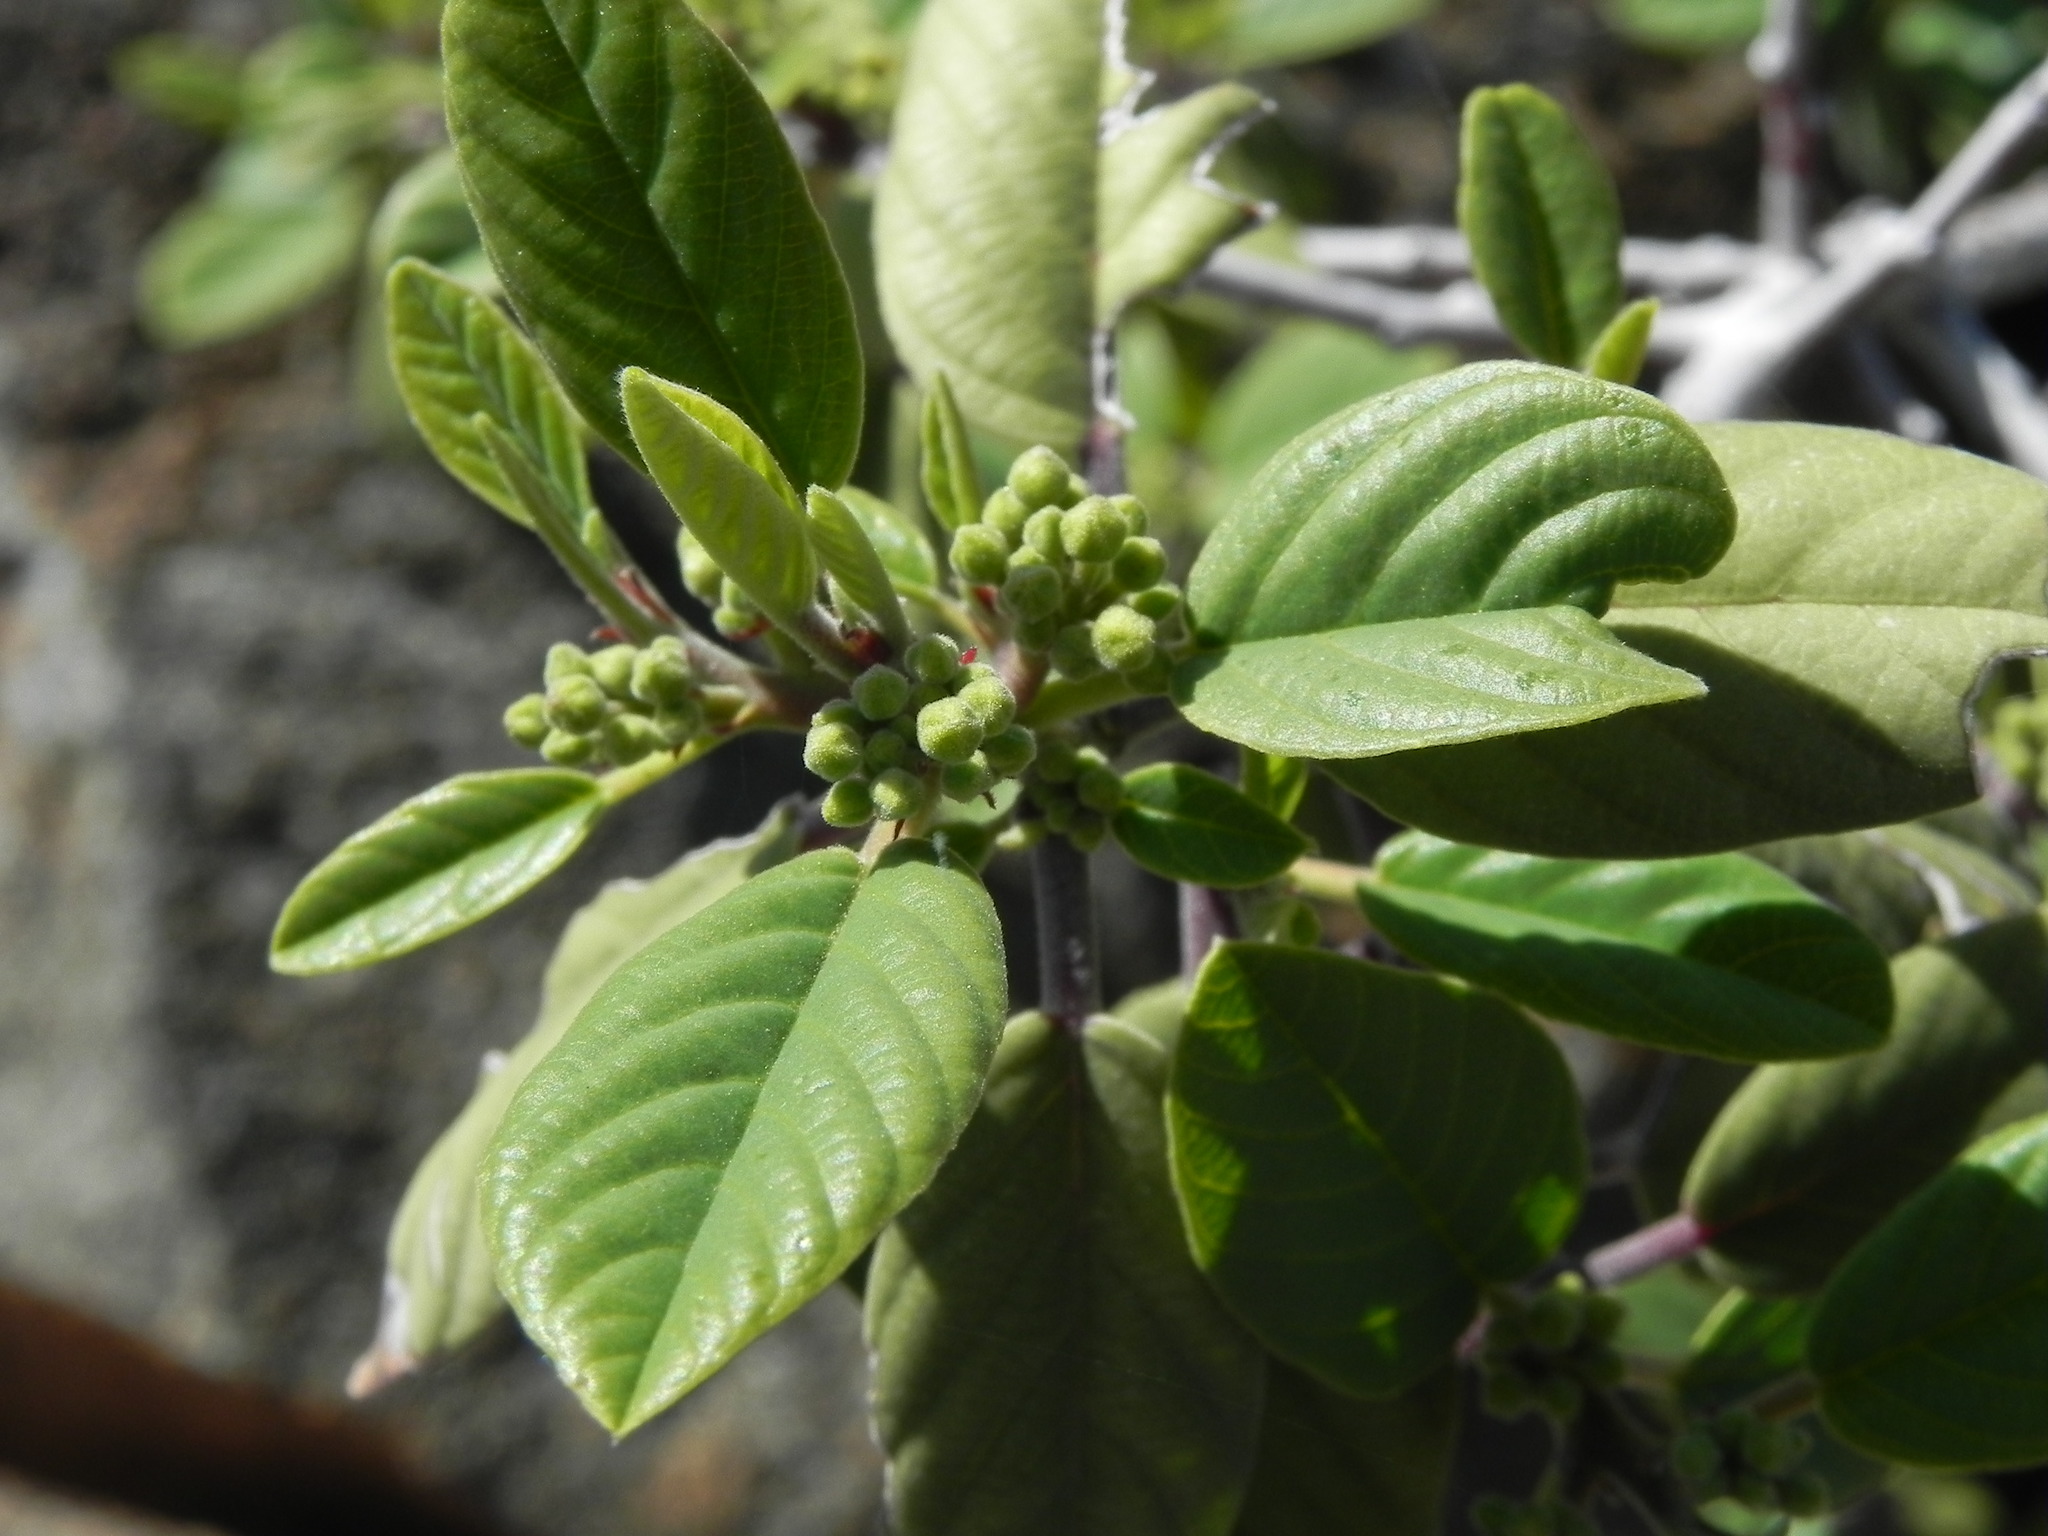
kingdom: Plantae
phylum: Tracheophyta
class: Magnoliopsida
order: Rosales
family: Rhamnaceae
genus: Frangula
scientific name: Frangula californica
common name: California buckthorn
